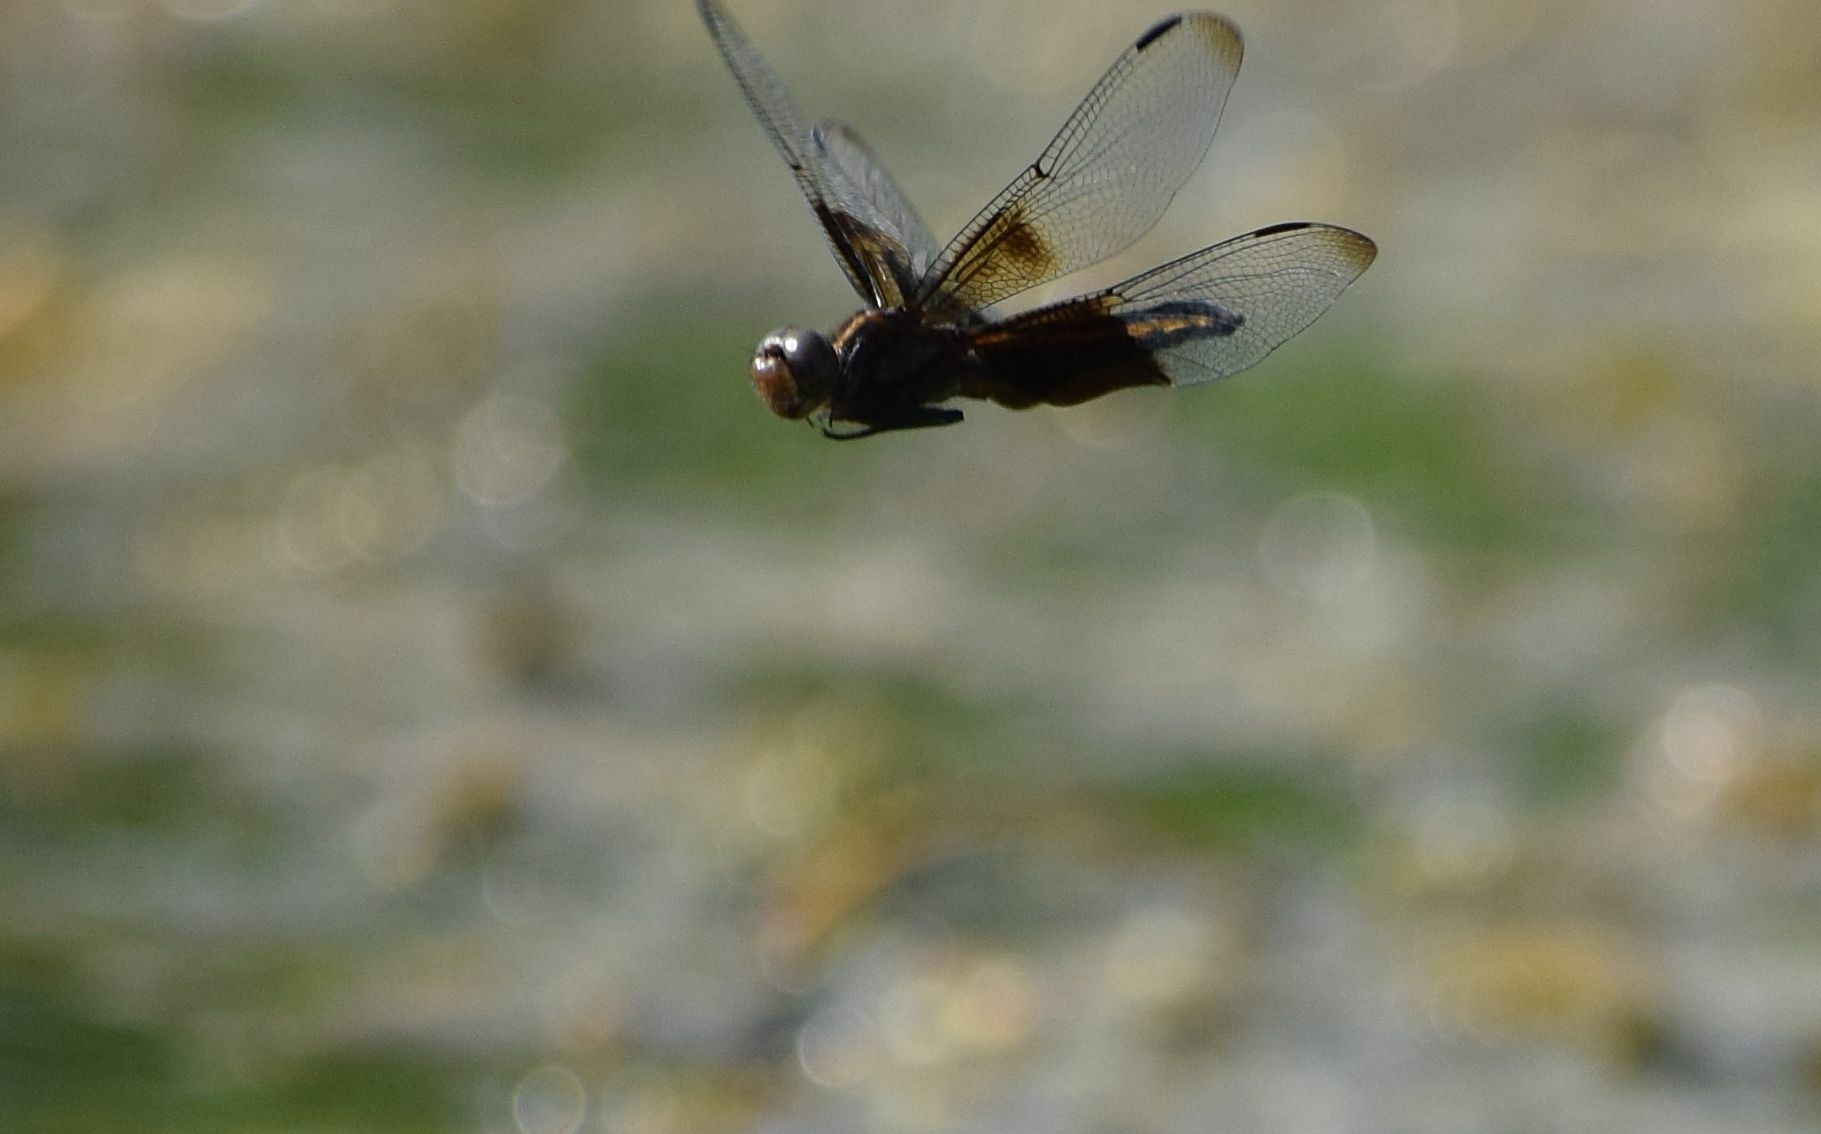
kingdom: Animalia
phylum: Arthropoda
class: Insecta
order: Odonata
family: Libellulidae
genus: Libellula
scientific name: Libellula luctuosa
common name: Widow skimmer
